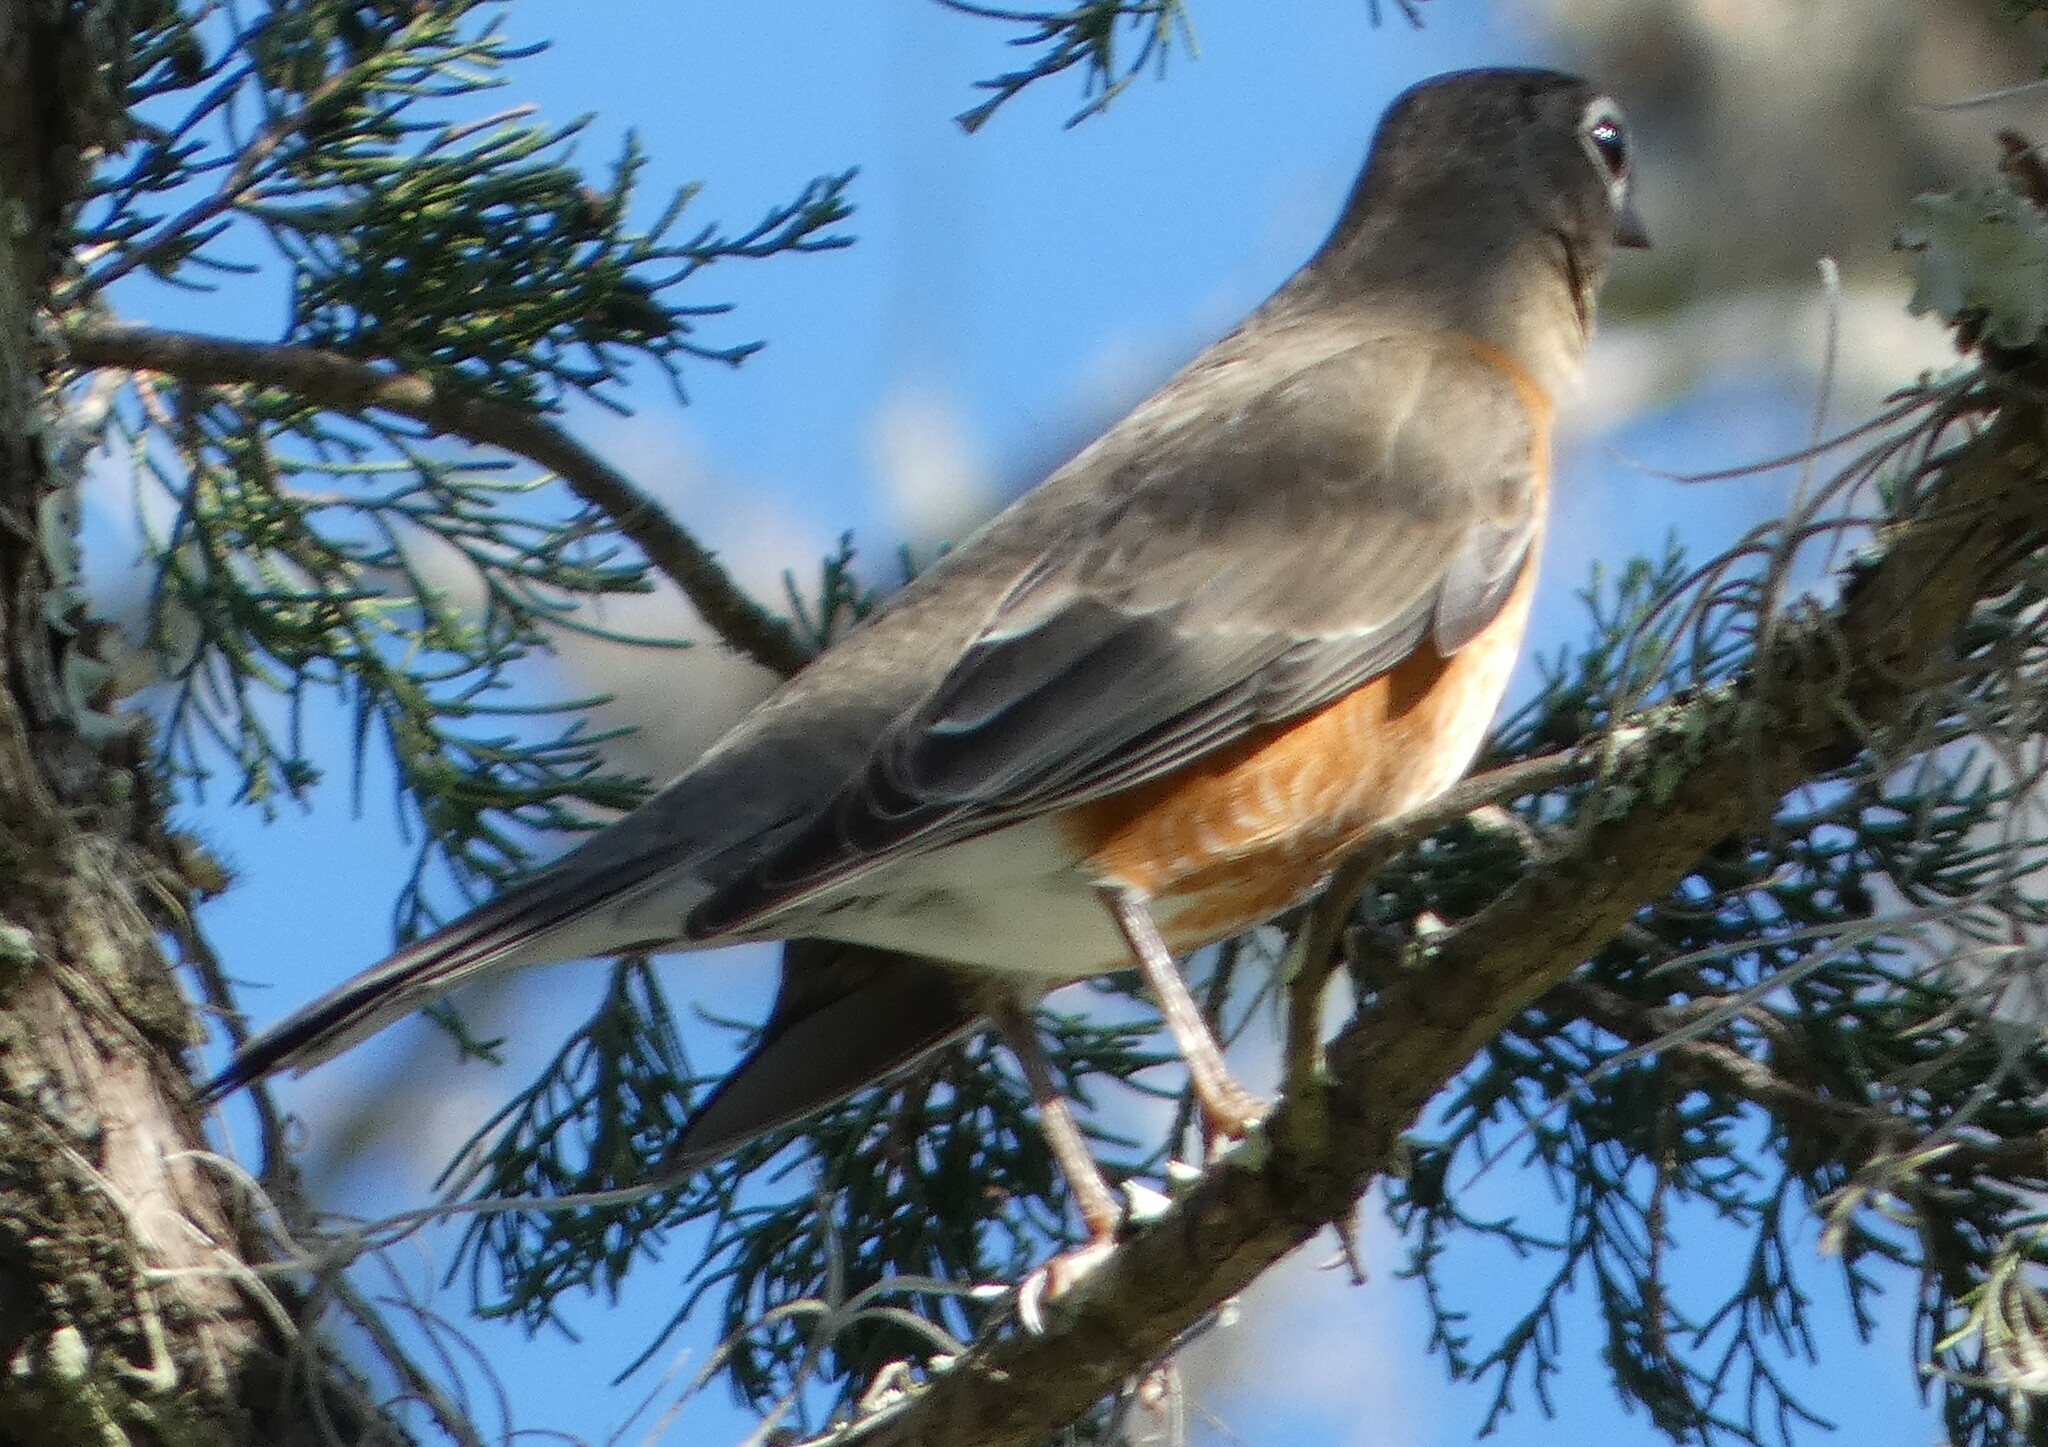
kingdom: Animalia
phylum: Chordata
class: Aves
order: Passeriformes
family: Turdidae
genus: Turdus
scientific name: Turdus migratorius
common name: American robin
